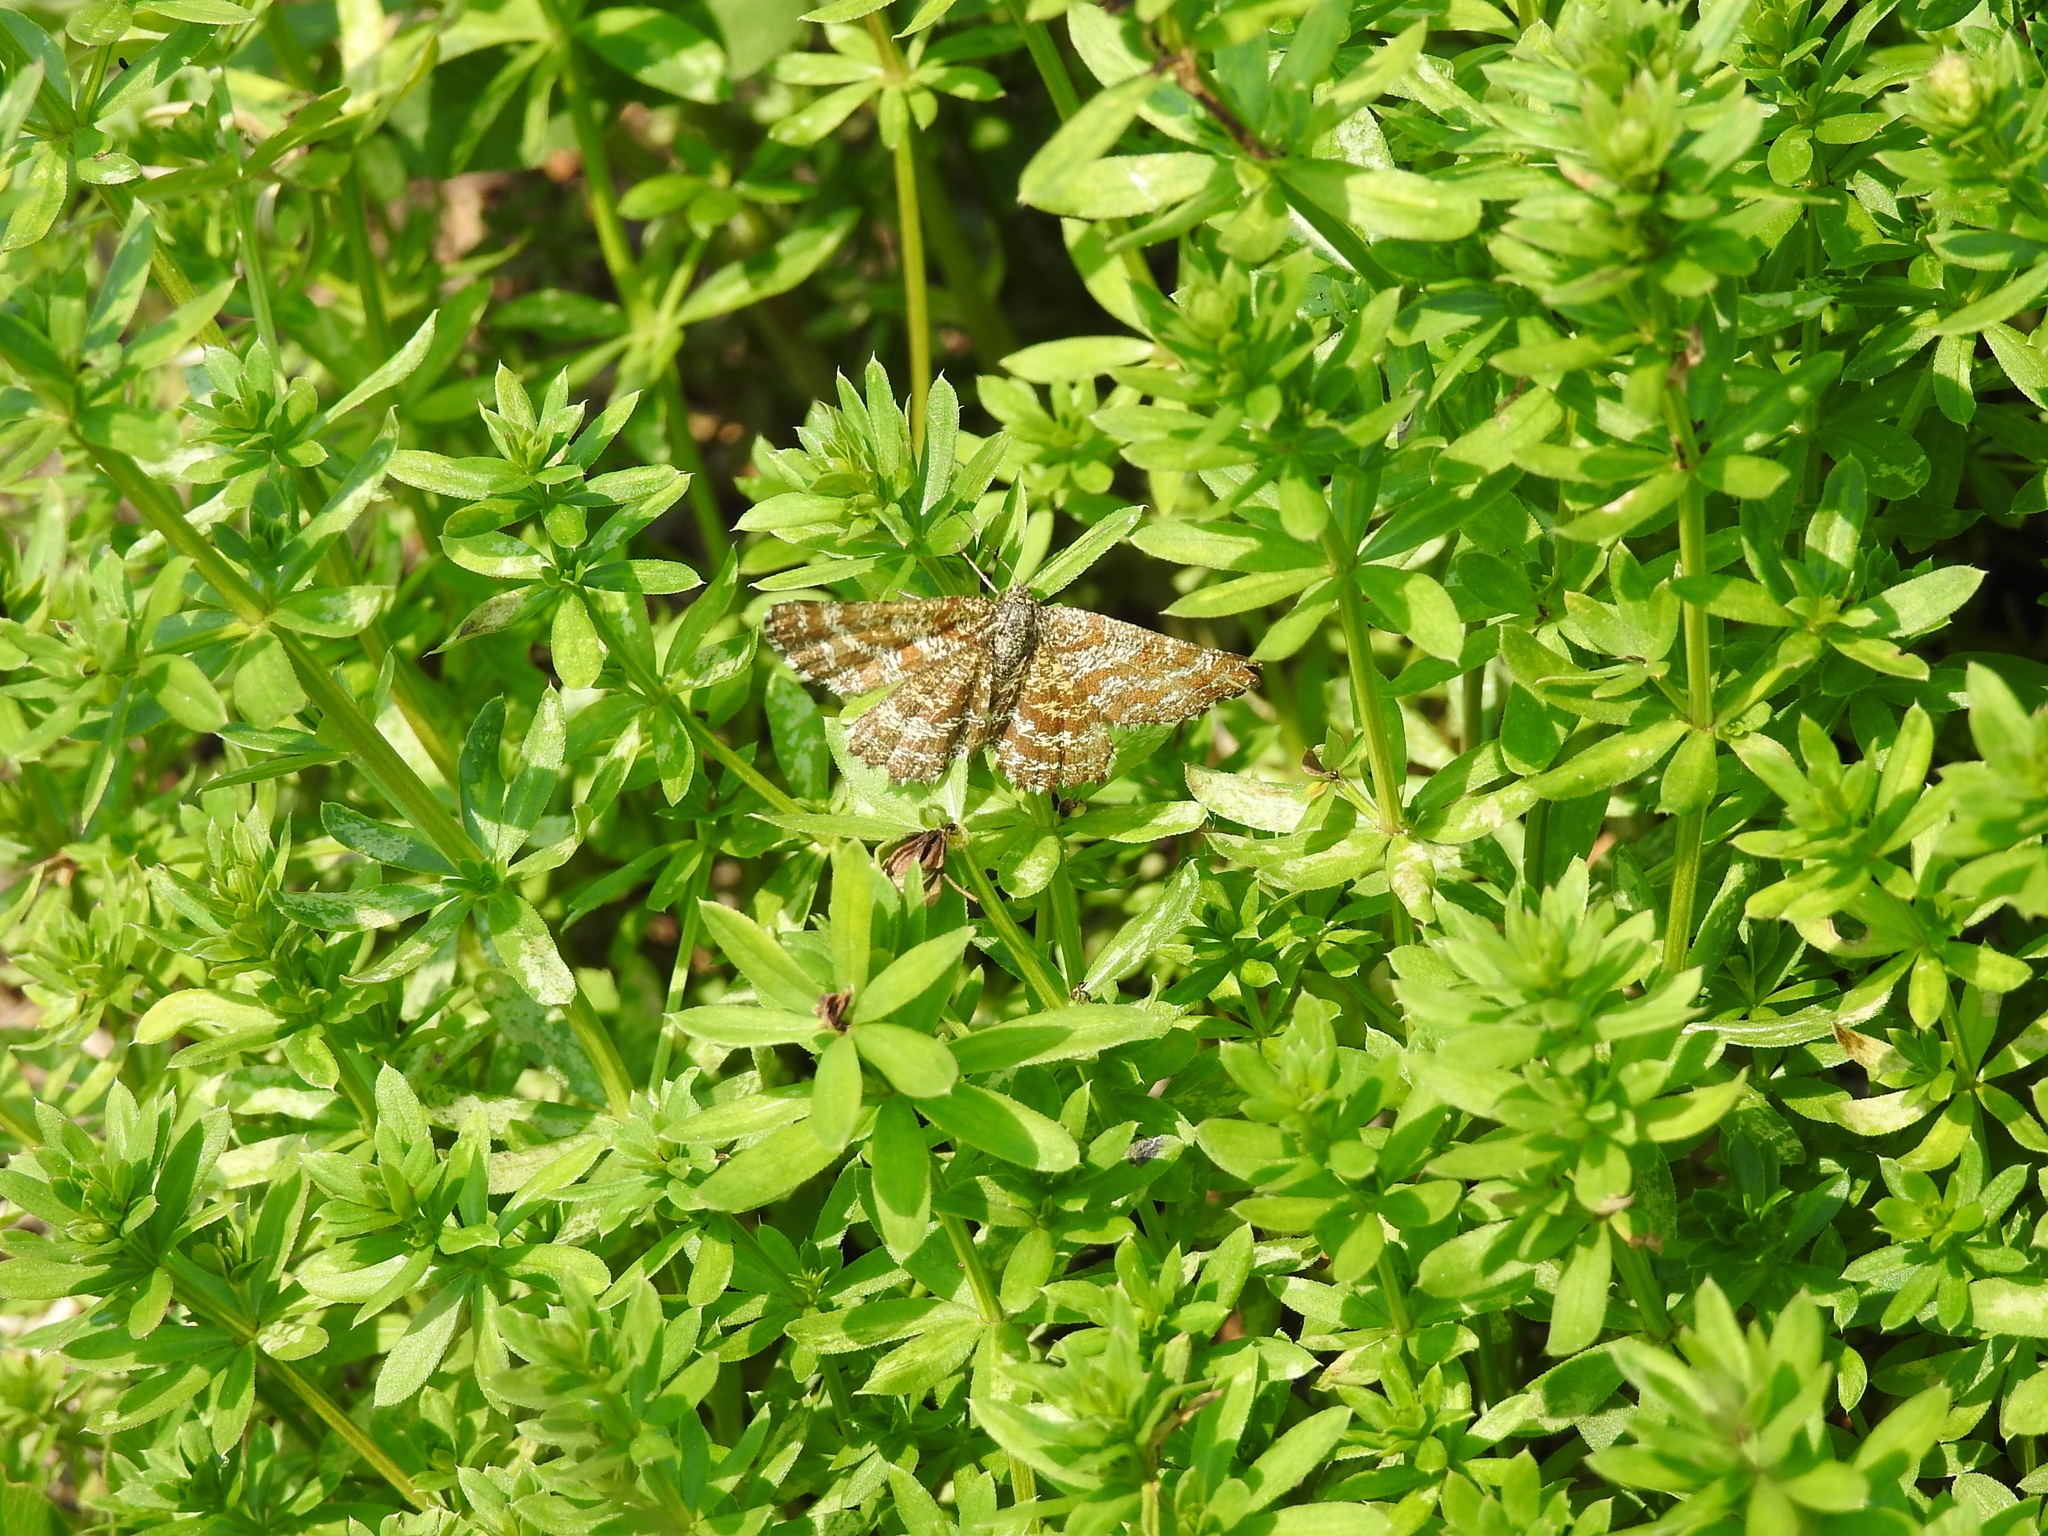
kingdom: Animalia
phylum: Arthropoda
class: Insecta
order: Lepidoptera
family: Geometridae
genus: Ematurga
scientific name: Ematurga atomaria
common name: Common heath
